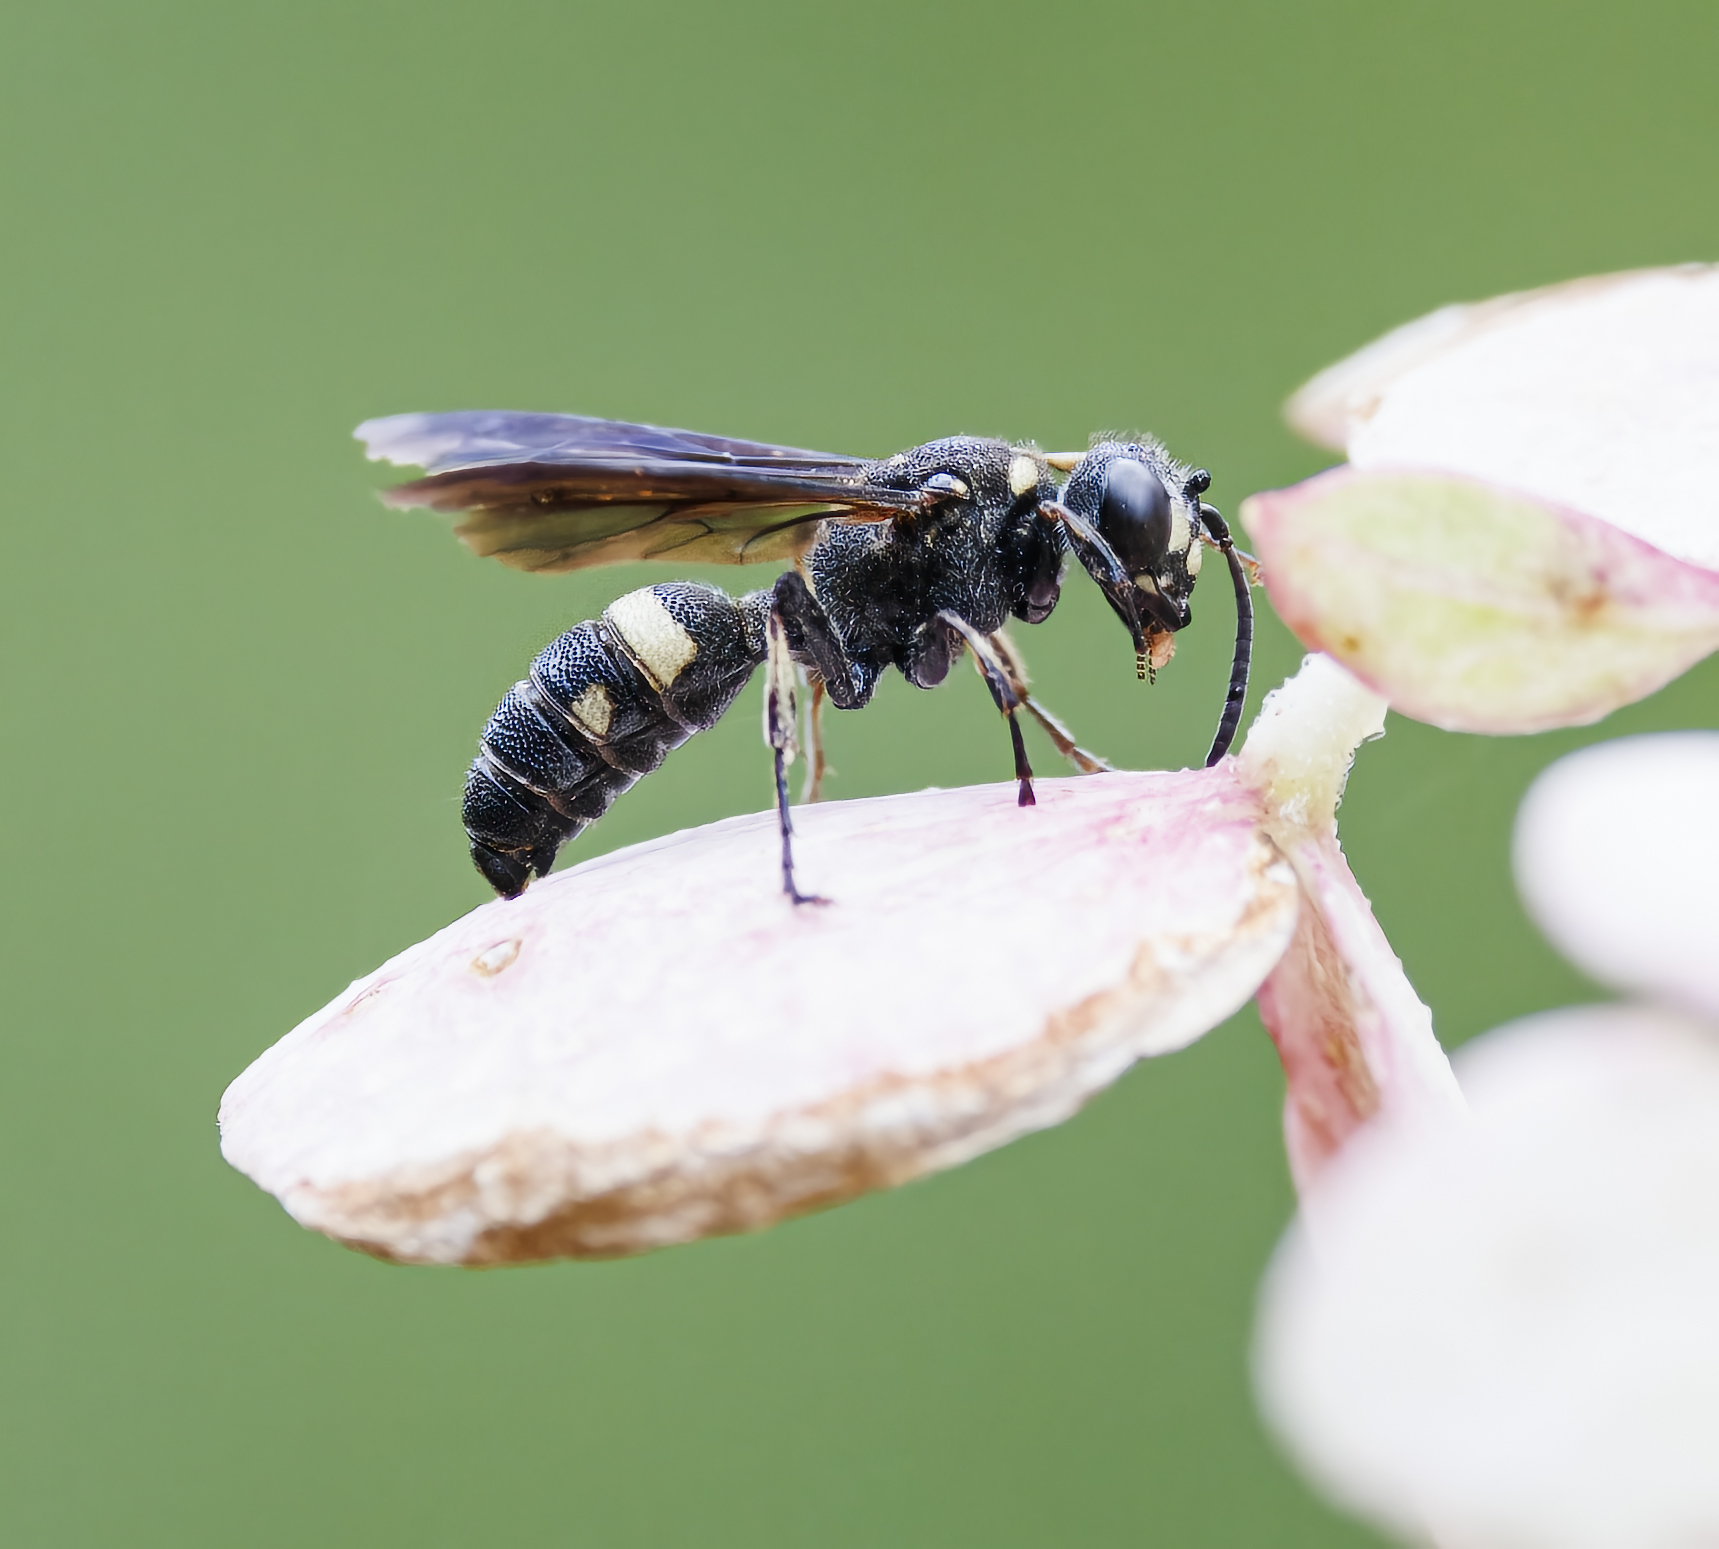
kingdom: Animalia
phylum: Arthropoda
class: Insecta
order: Hymenoptera
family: Crabronidae
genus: Cerceris
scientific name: Cerceris fumipennis
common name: Smokey-winged beetle bandit wasp
